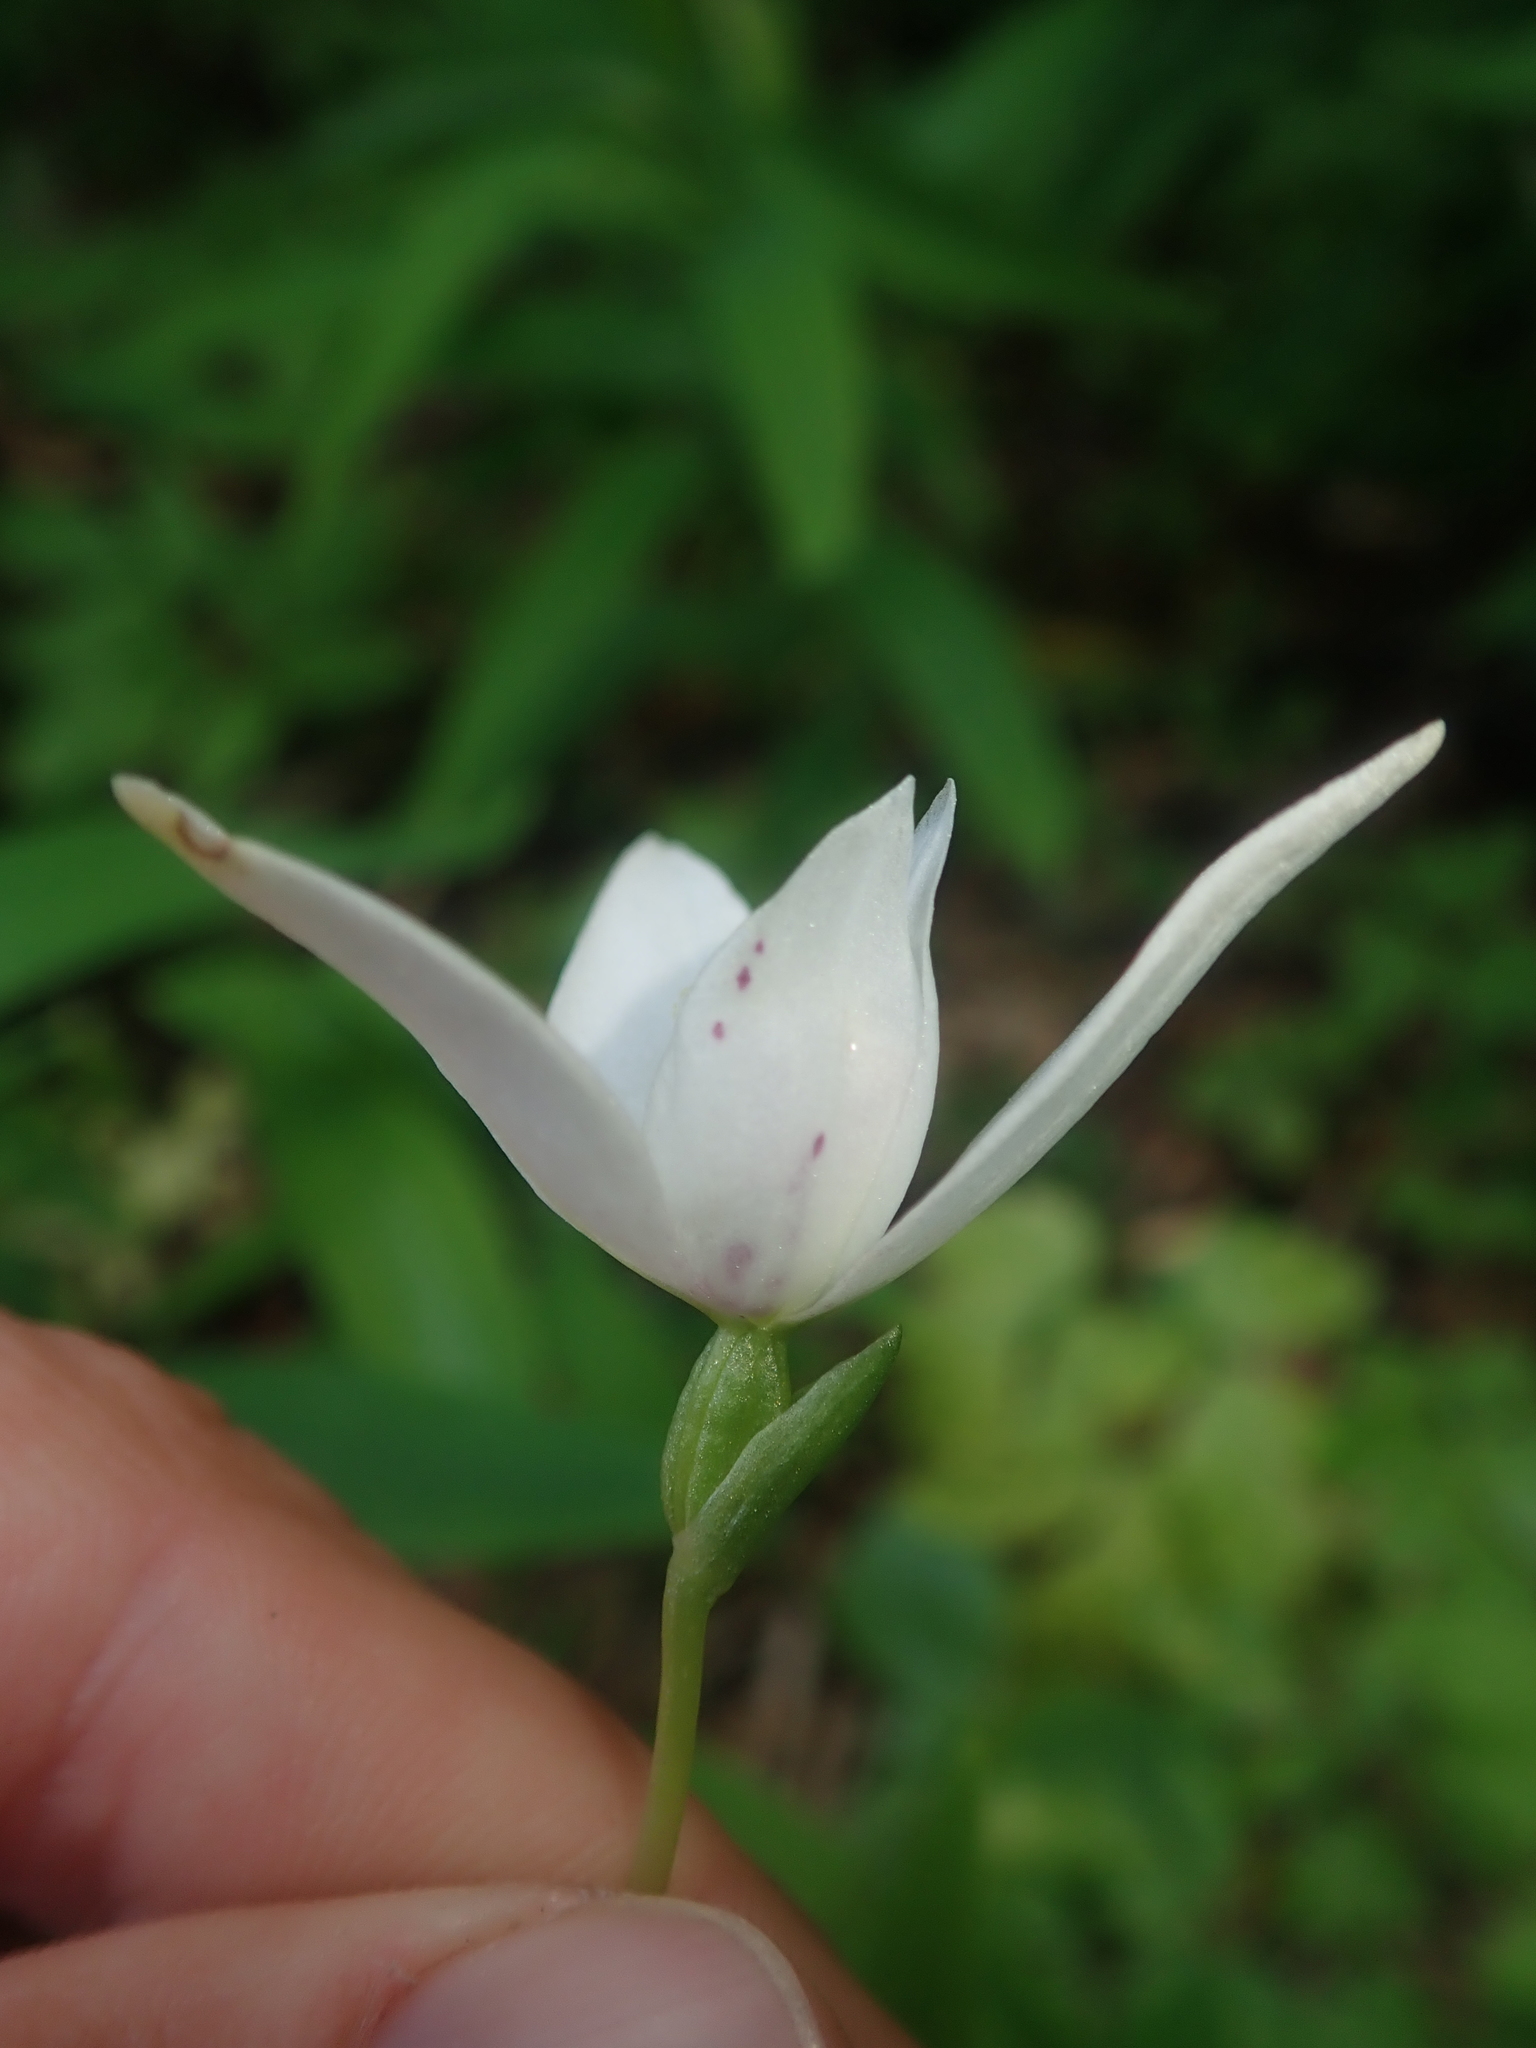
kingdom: Plantae
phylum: Tracheophyta
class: Liliopsida
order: Asparagales
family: Orchidaceae
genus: Codonorchis
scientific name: Codonorchis lessonii
